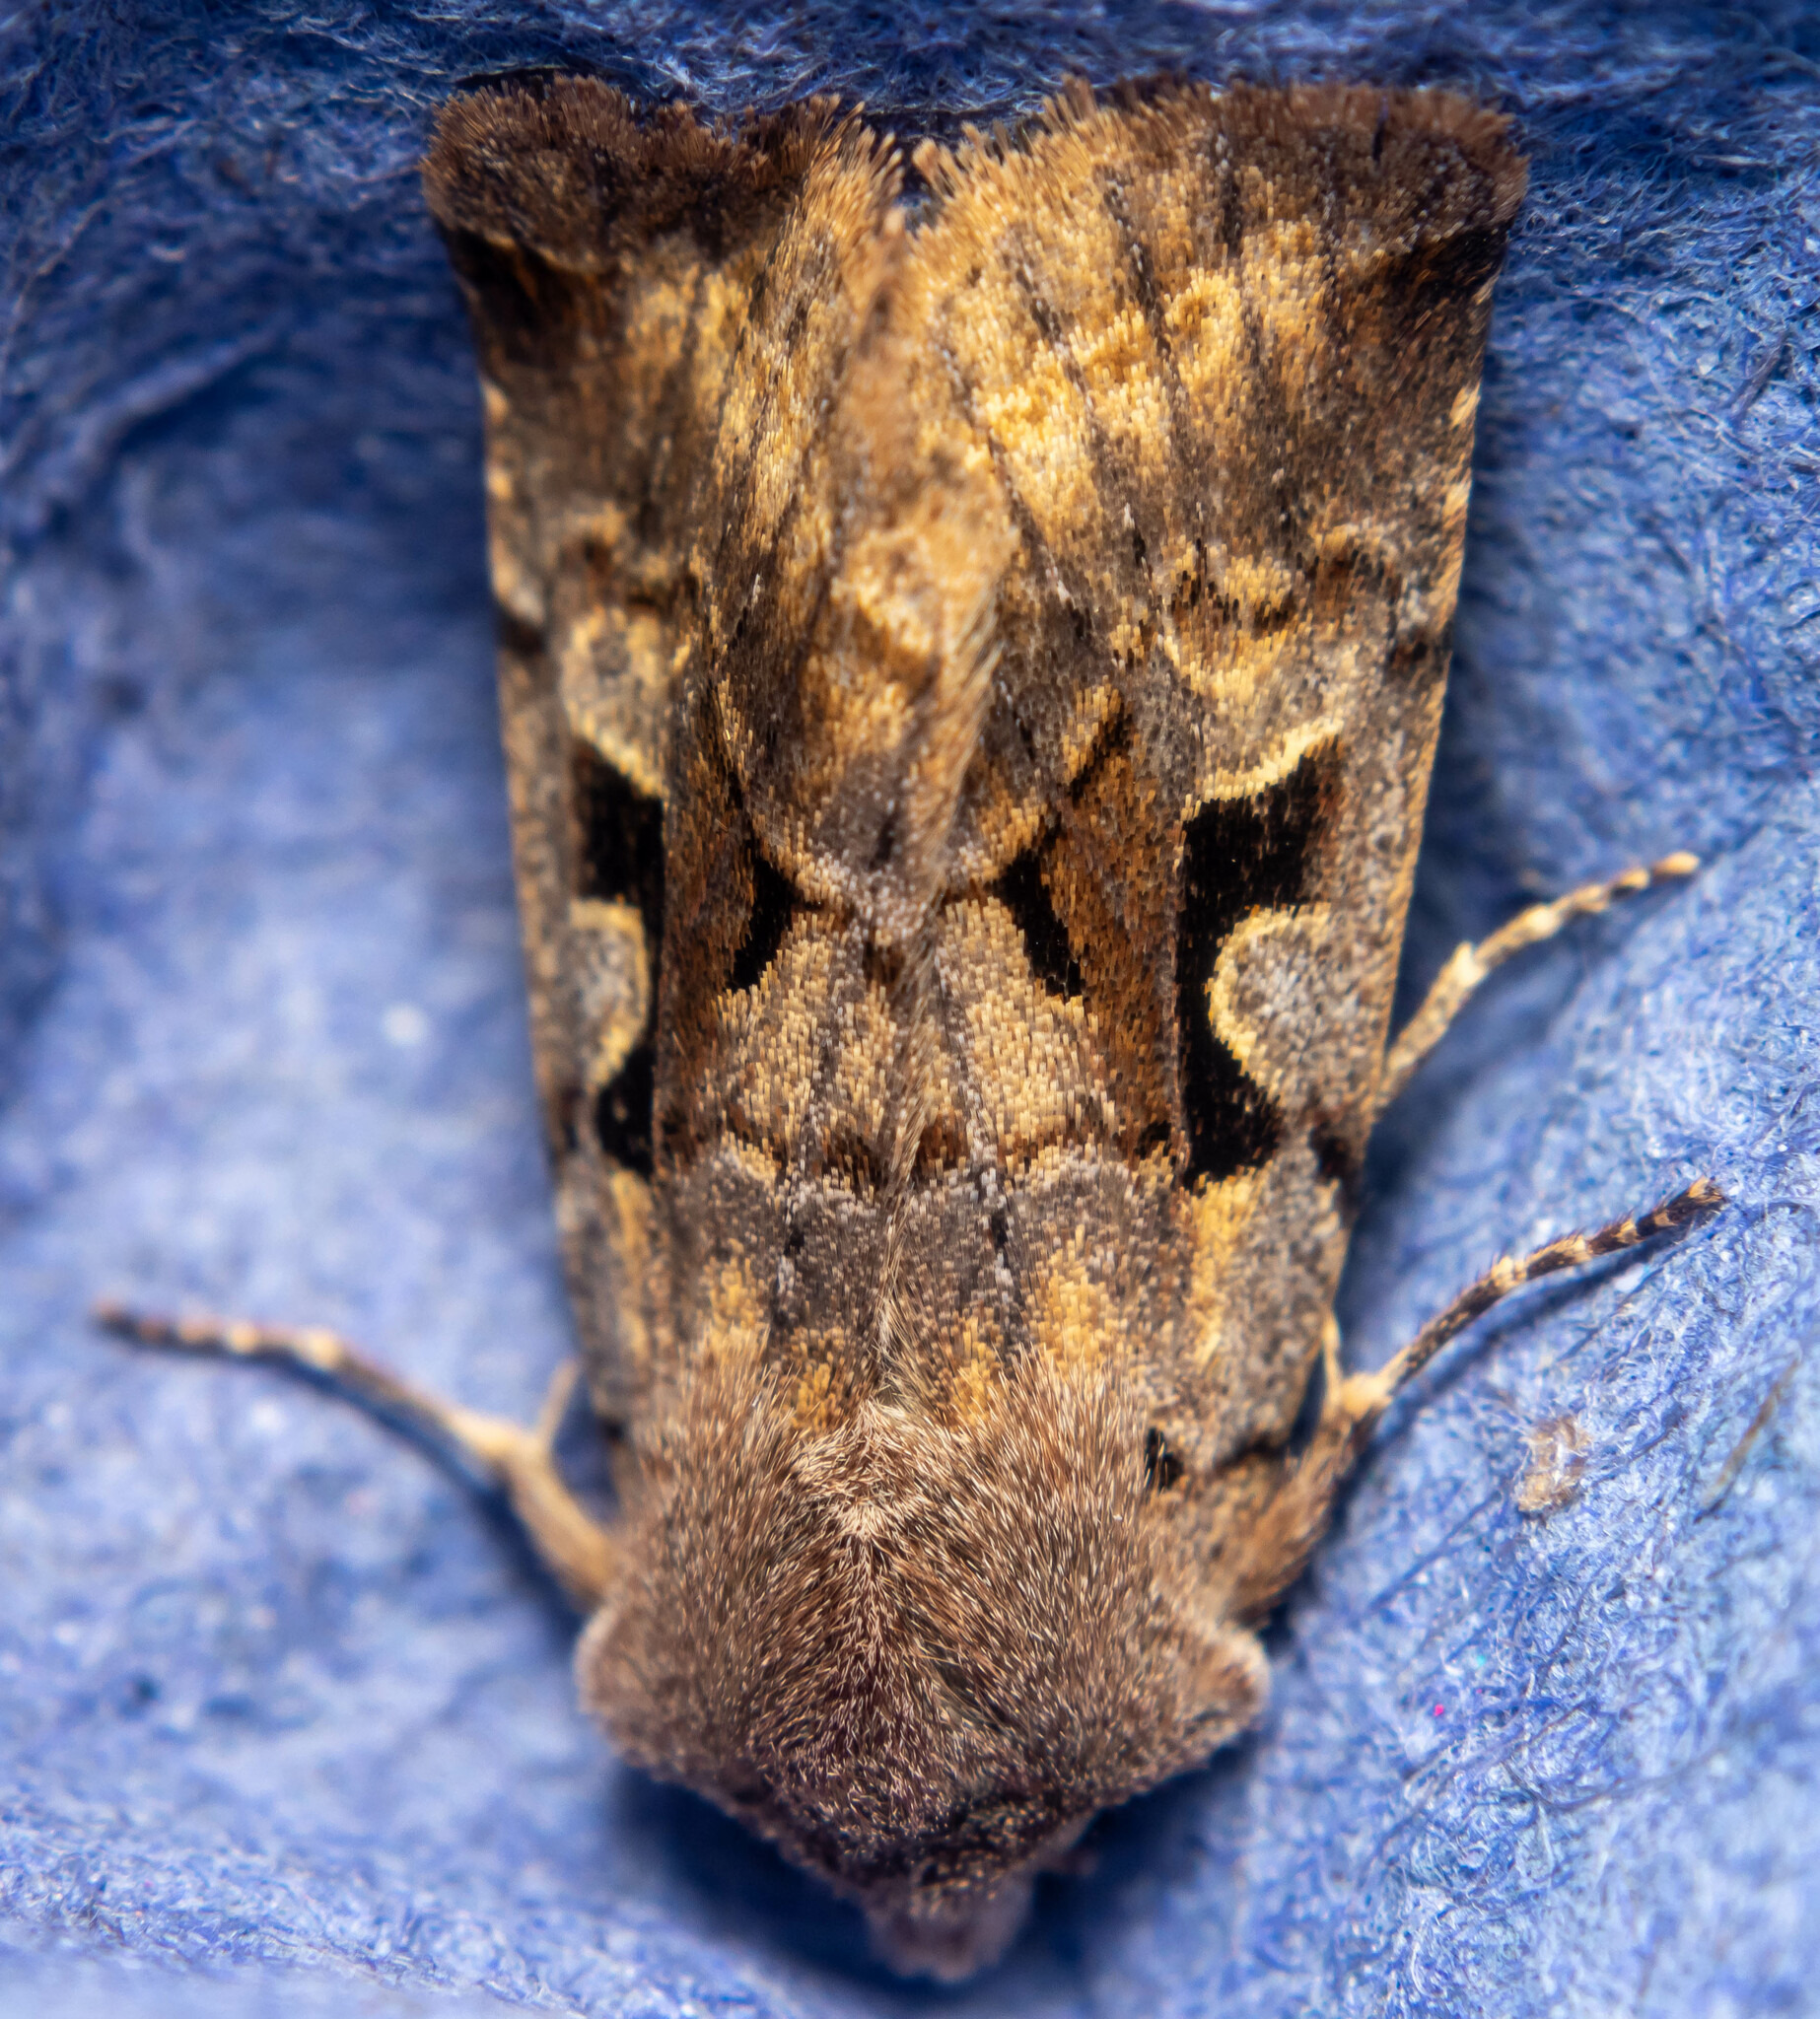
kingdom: Animalia
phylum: Arthropoda
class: Insecta
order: Lepidoptera
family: Noctuidae
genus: Orthosia
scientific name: Orthosia gothica
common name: Hebrew character
